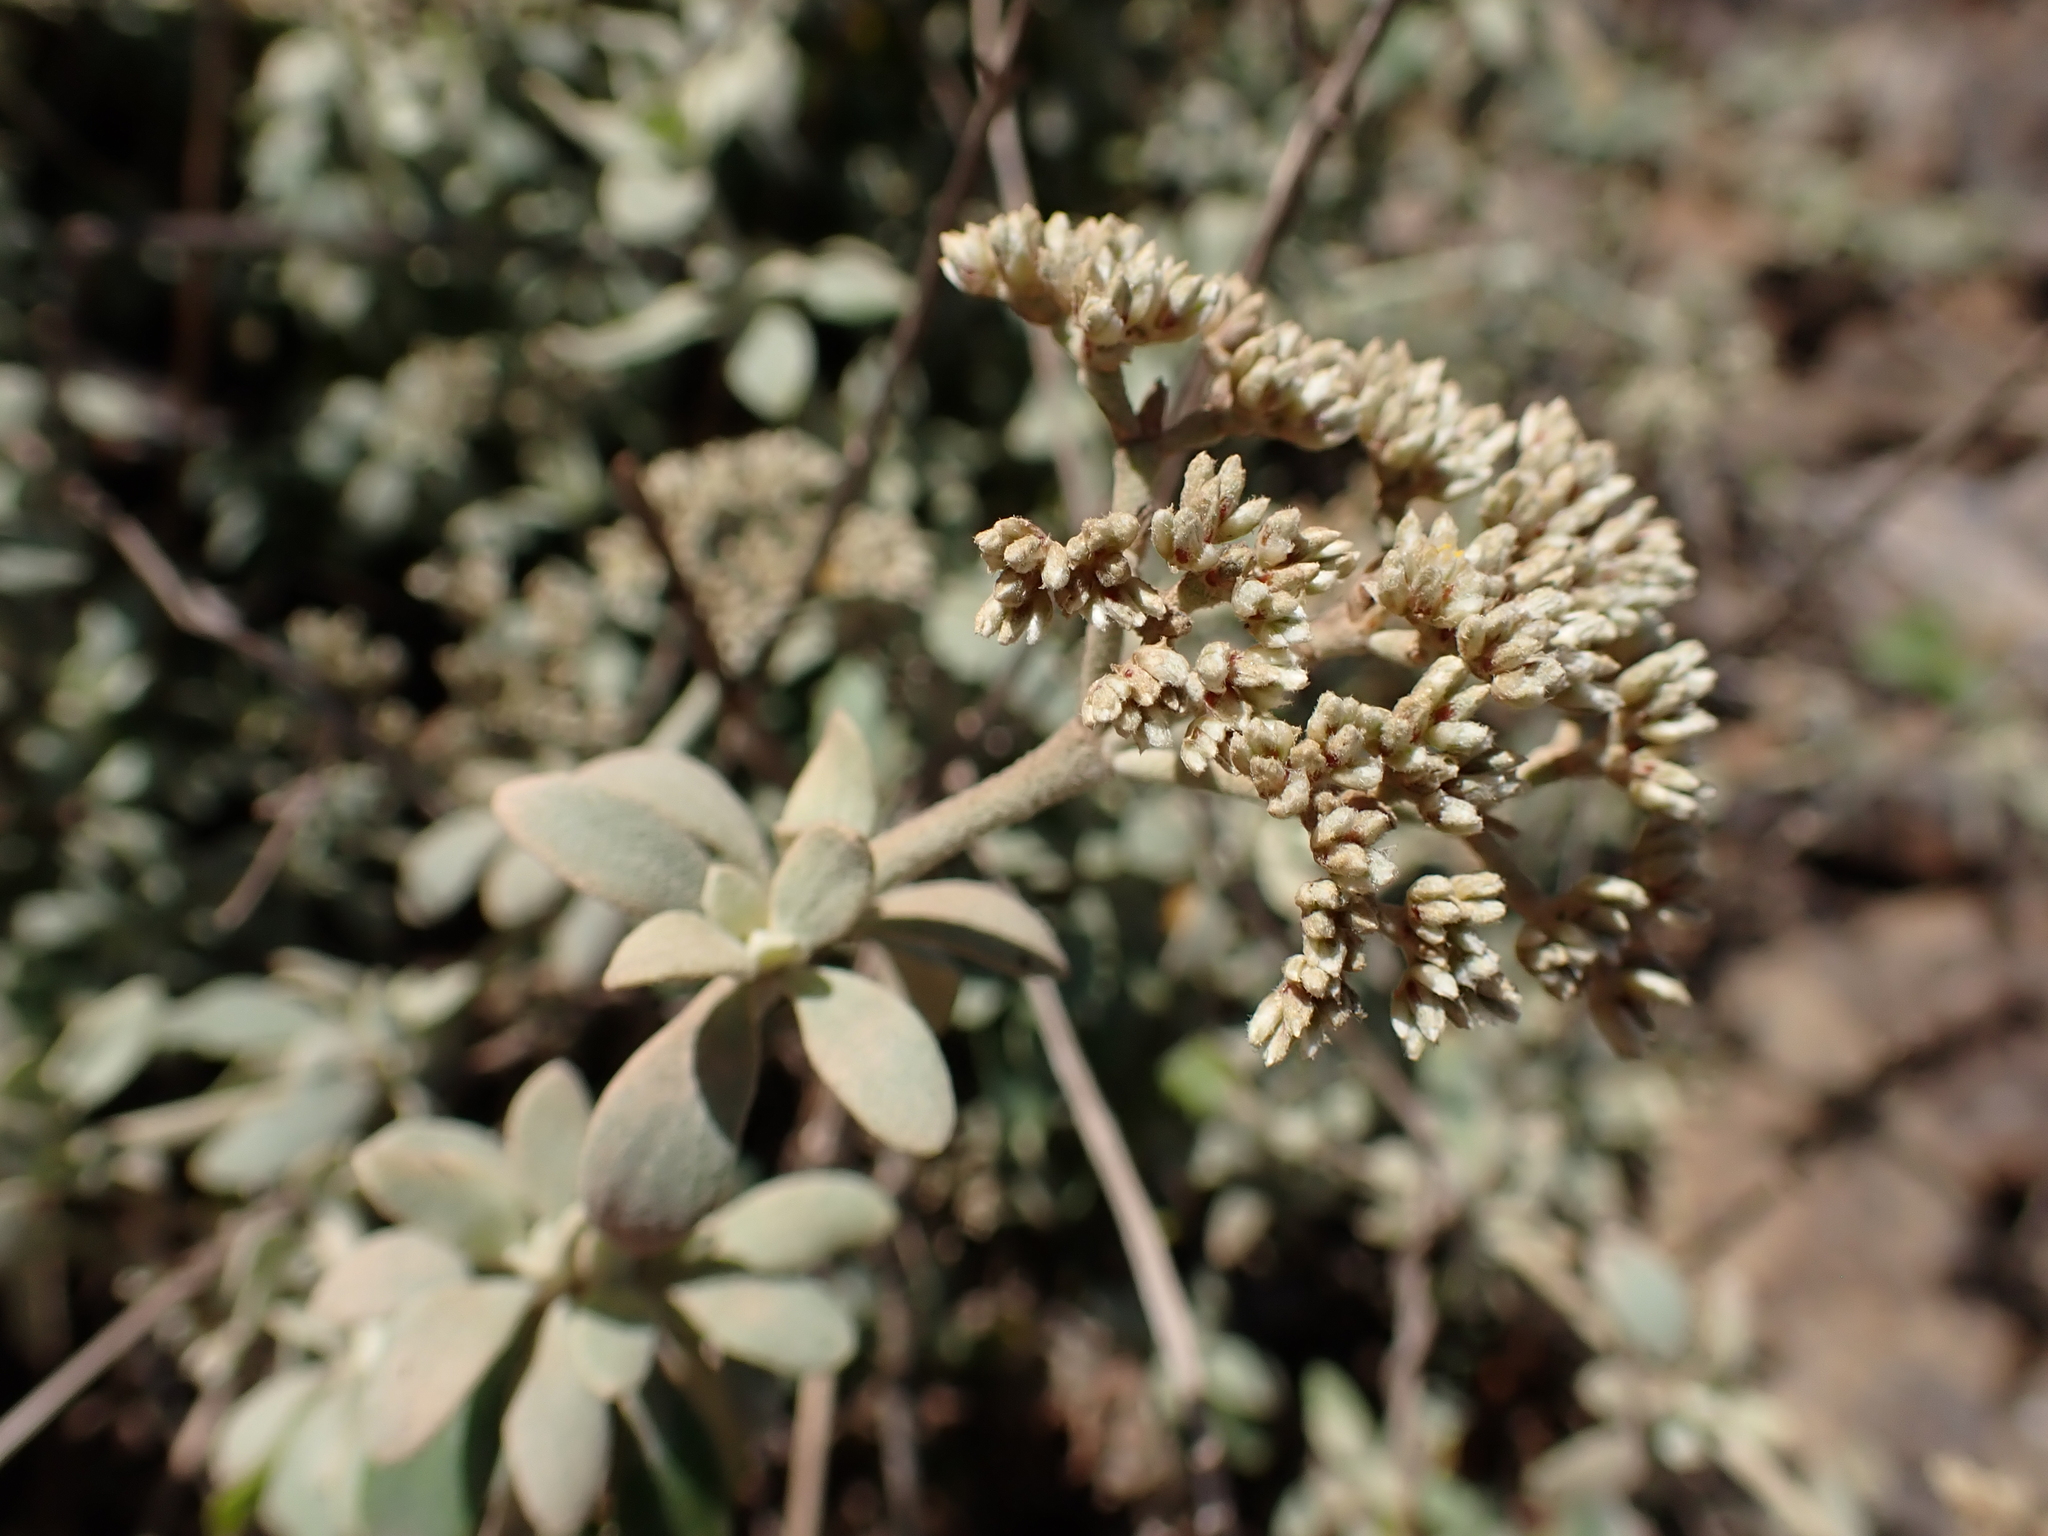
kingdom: Plantae
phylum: Tracheophyta
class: Magnoliopsida
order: Caryophyllales
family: Caryophyllaceae
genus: Polycarpaea
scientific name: Polycarpaea gayi
